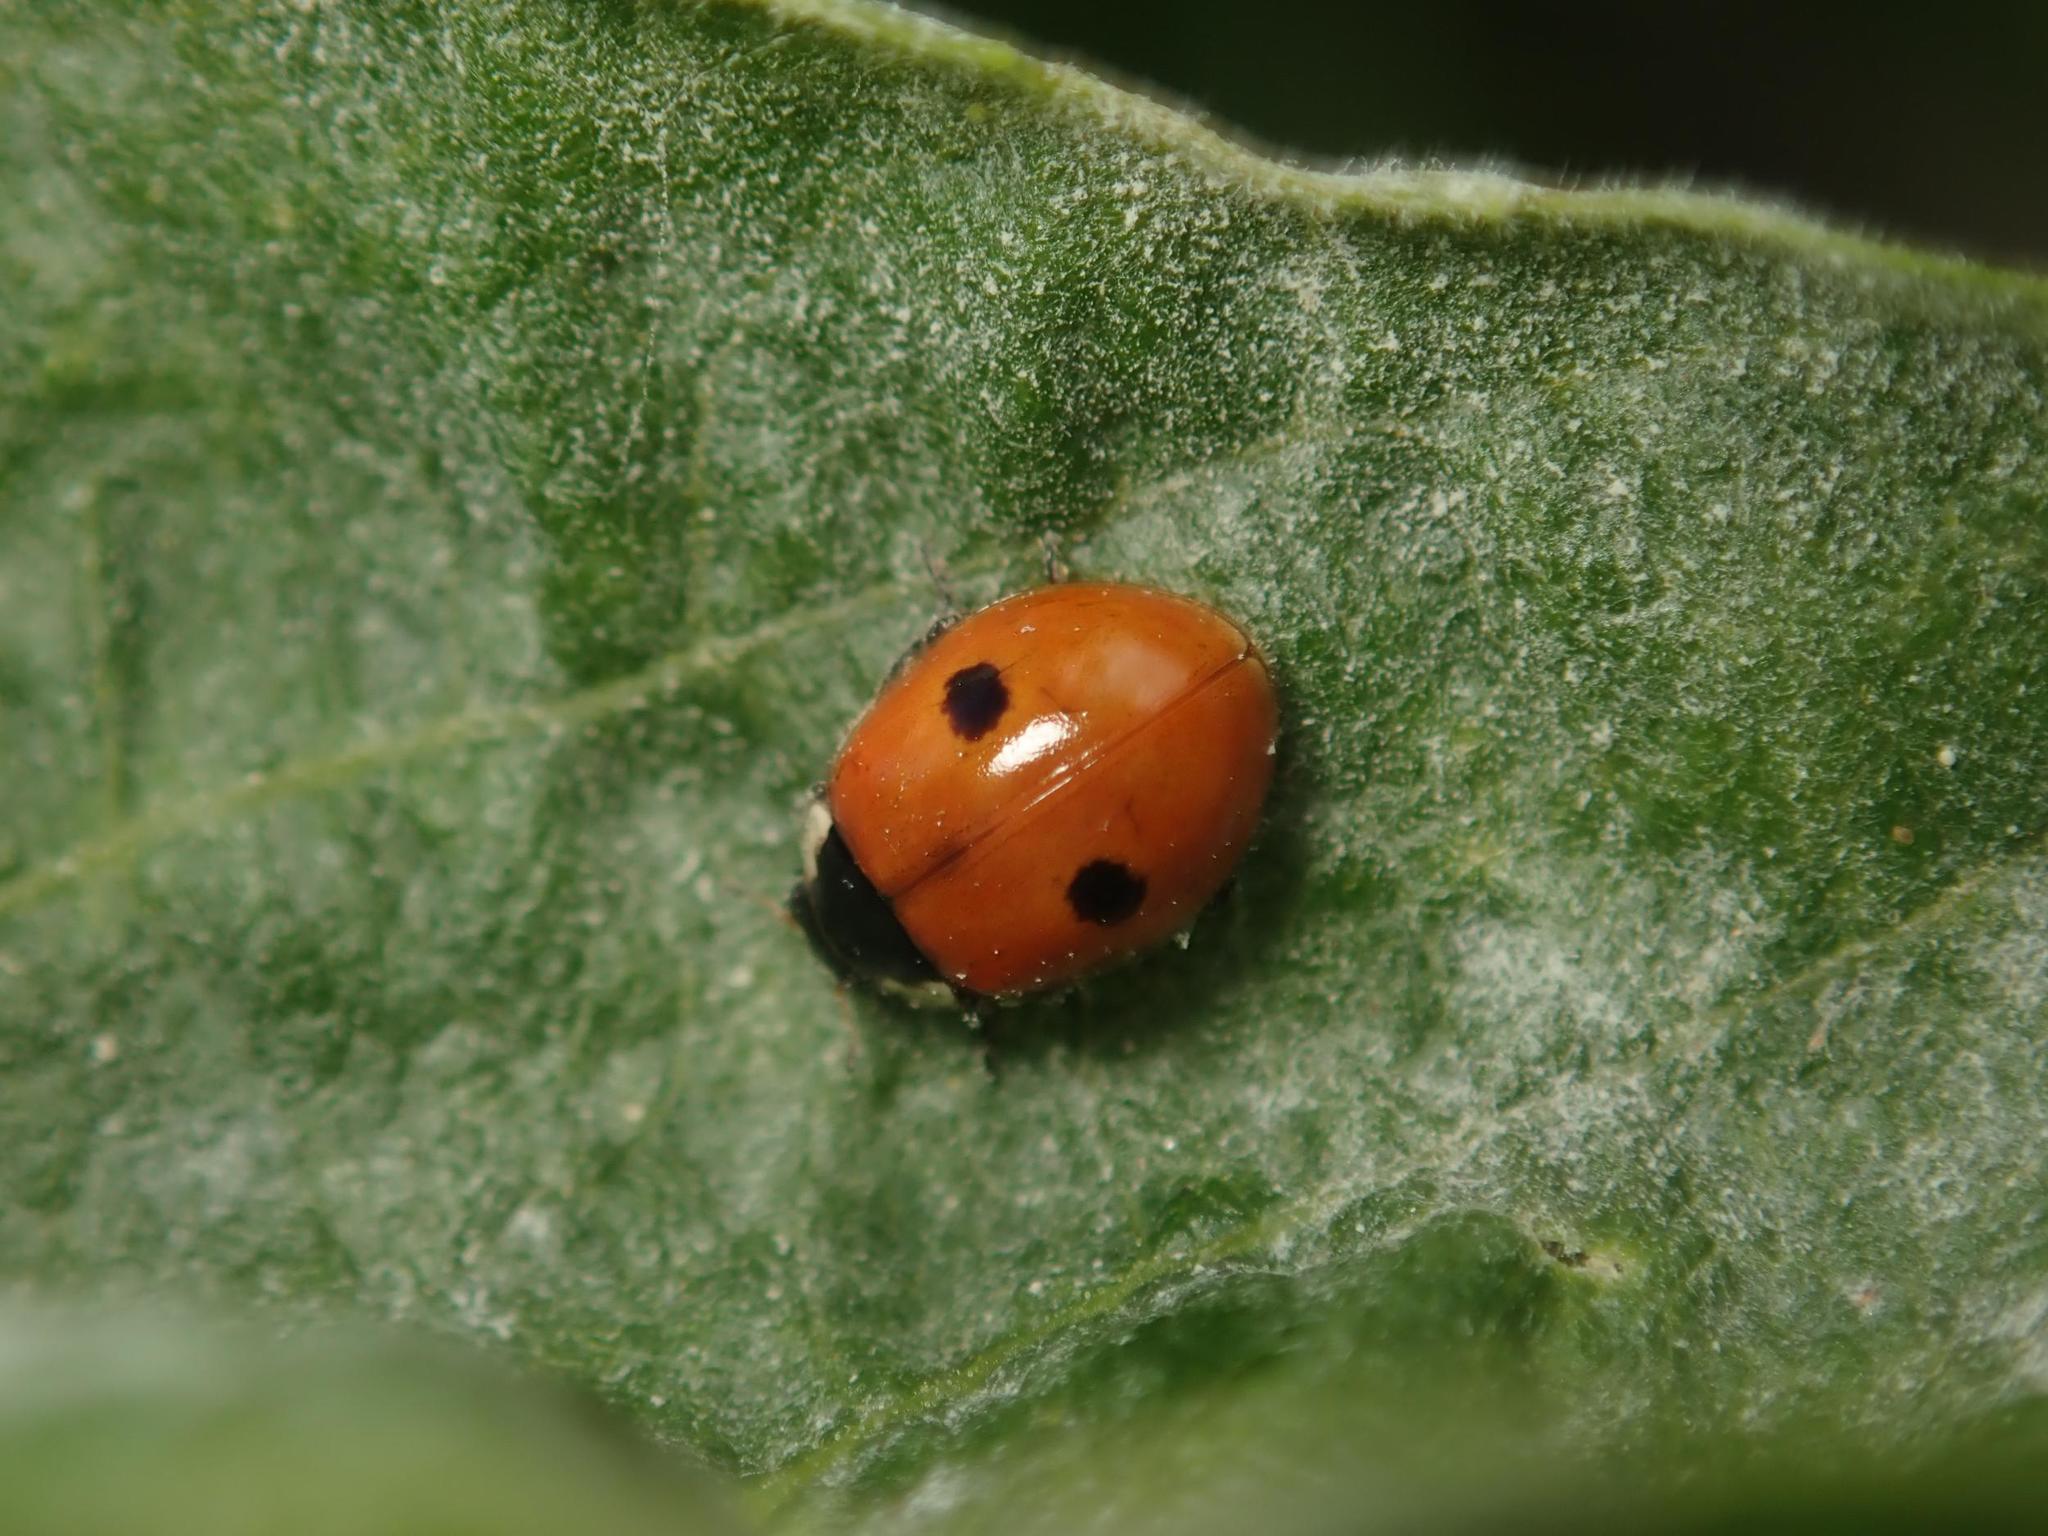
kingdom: Animalia
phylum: Arthropoda
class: Insecta
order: Coleoptera
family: Coccinellidae
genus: Adalia
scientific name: Adalia bipunctata
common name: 2-spot ladybird
